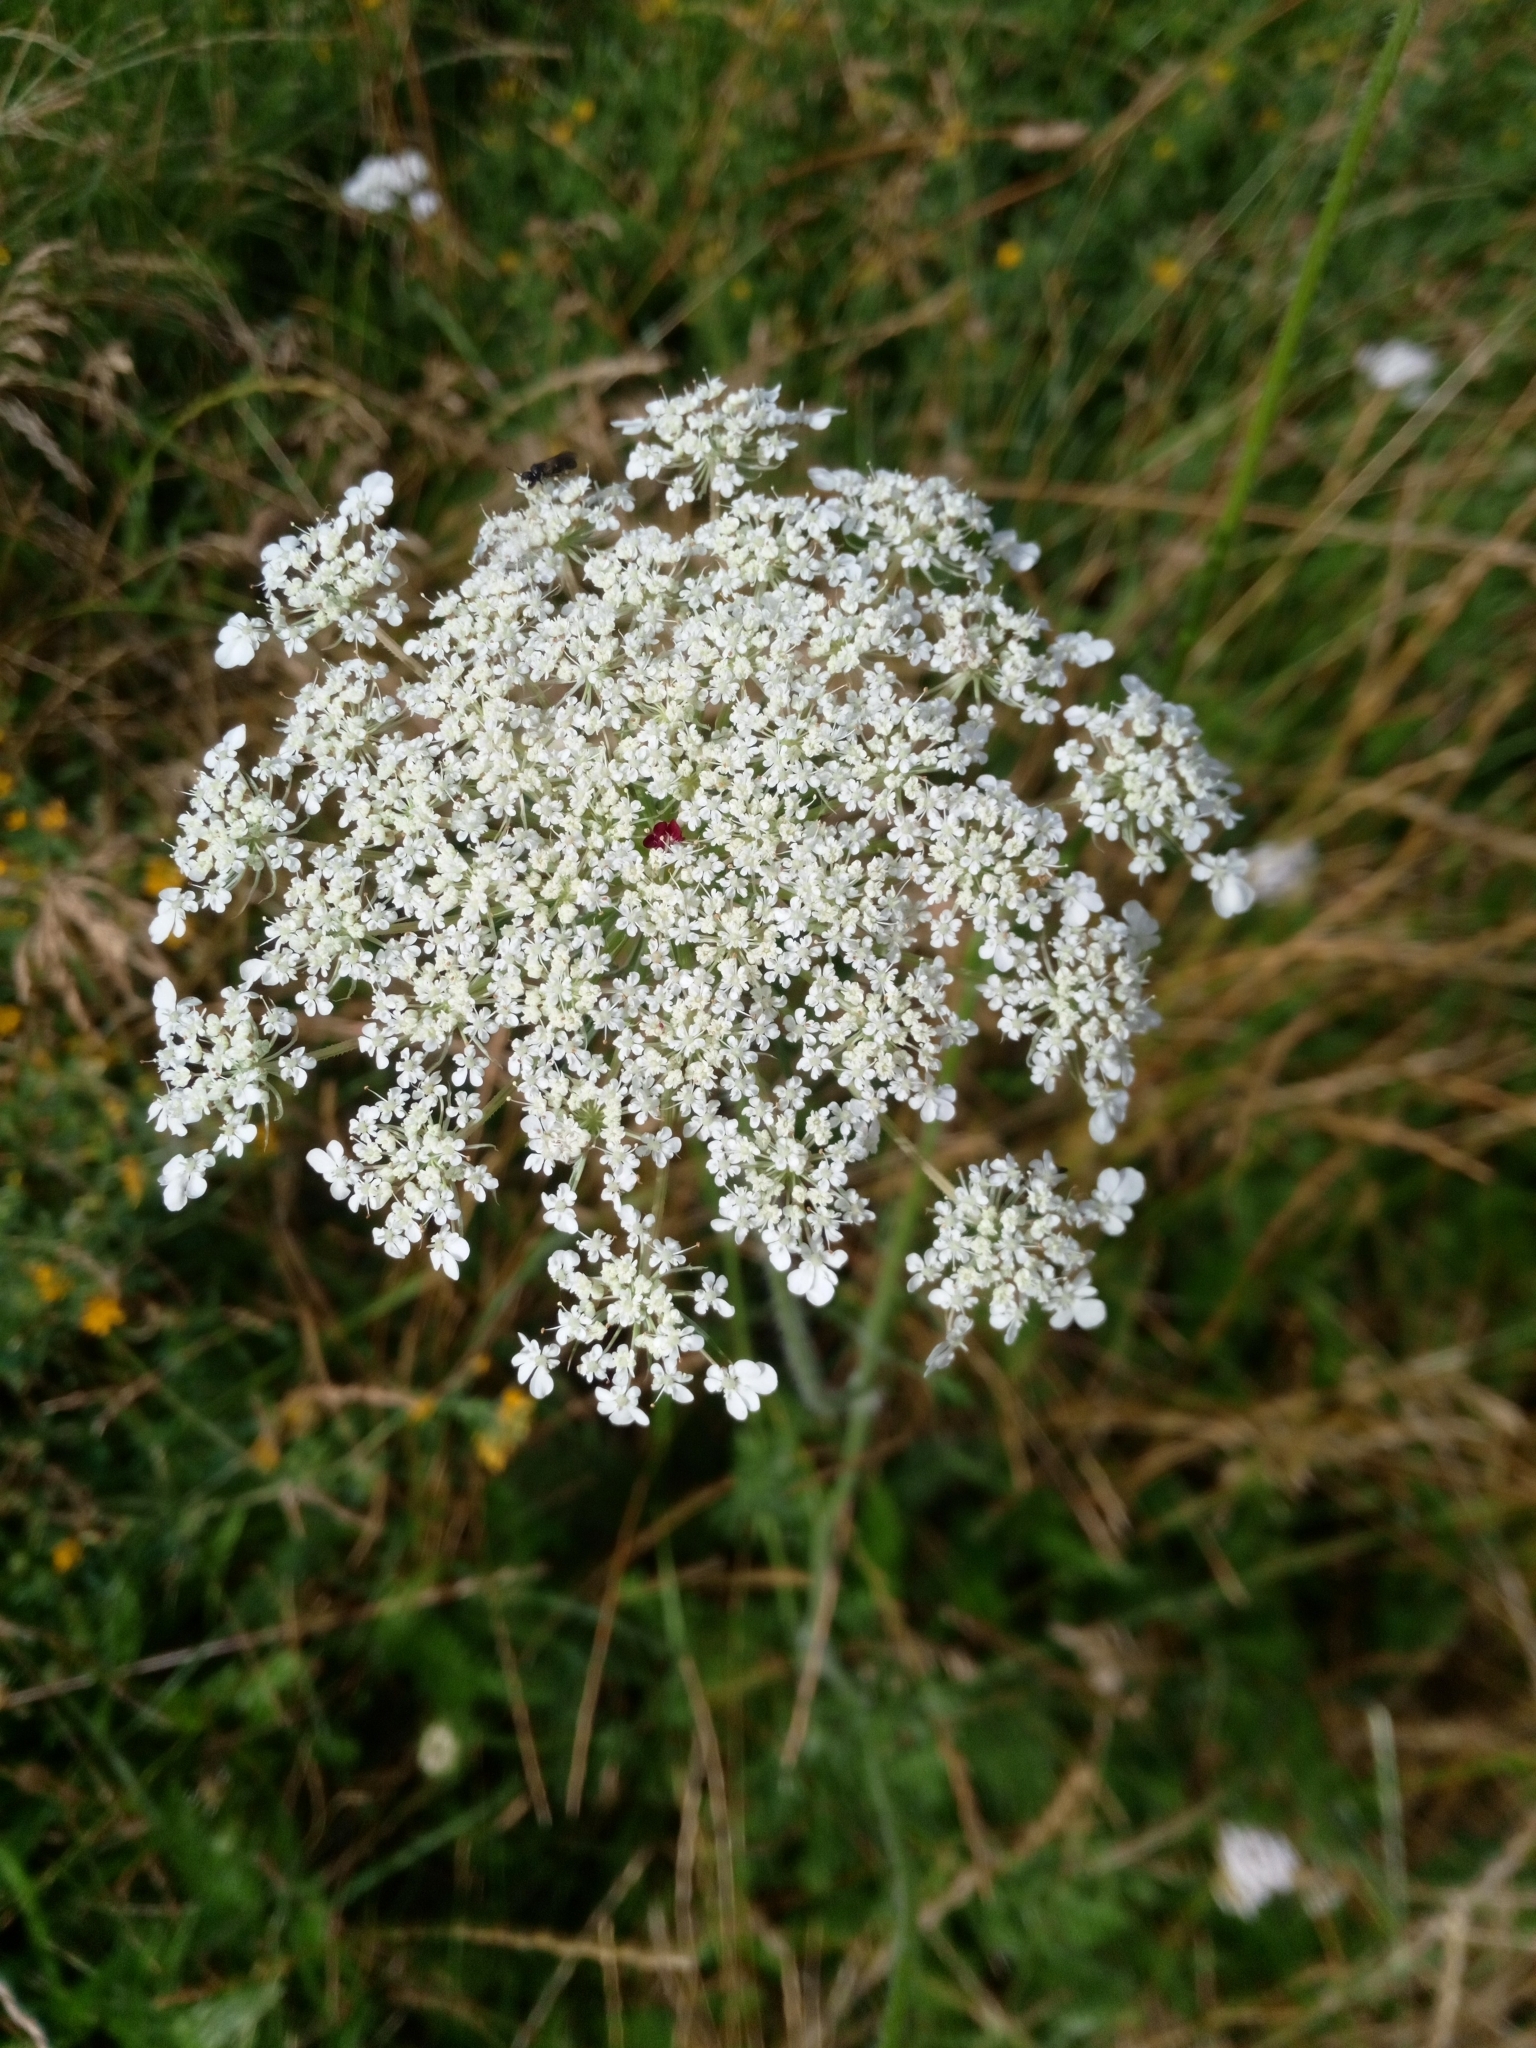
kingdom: Plantae
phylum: Tracheophyta
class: Magnoliopsida
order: Apiales
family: Apiaceae
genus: Daucus
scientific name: Daucus carota
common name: Wild carrot
